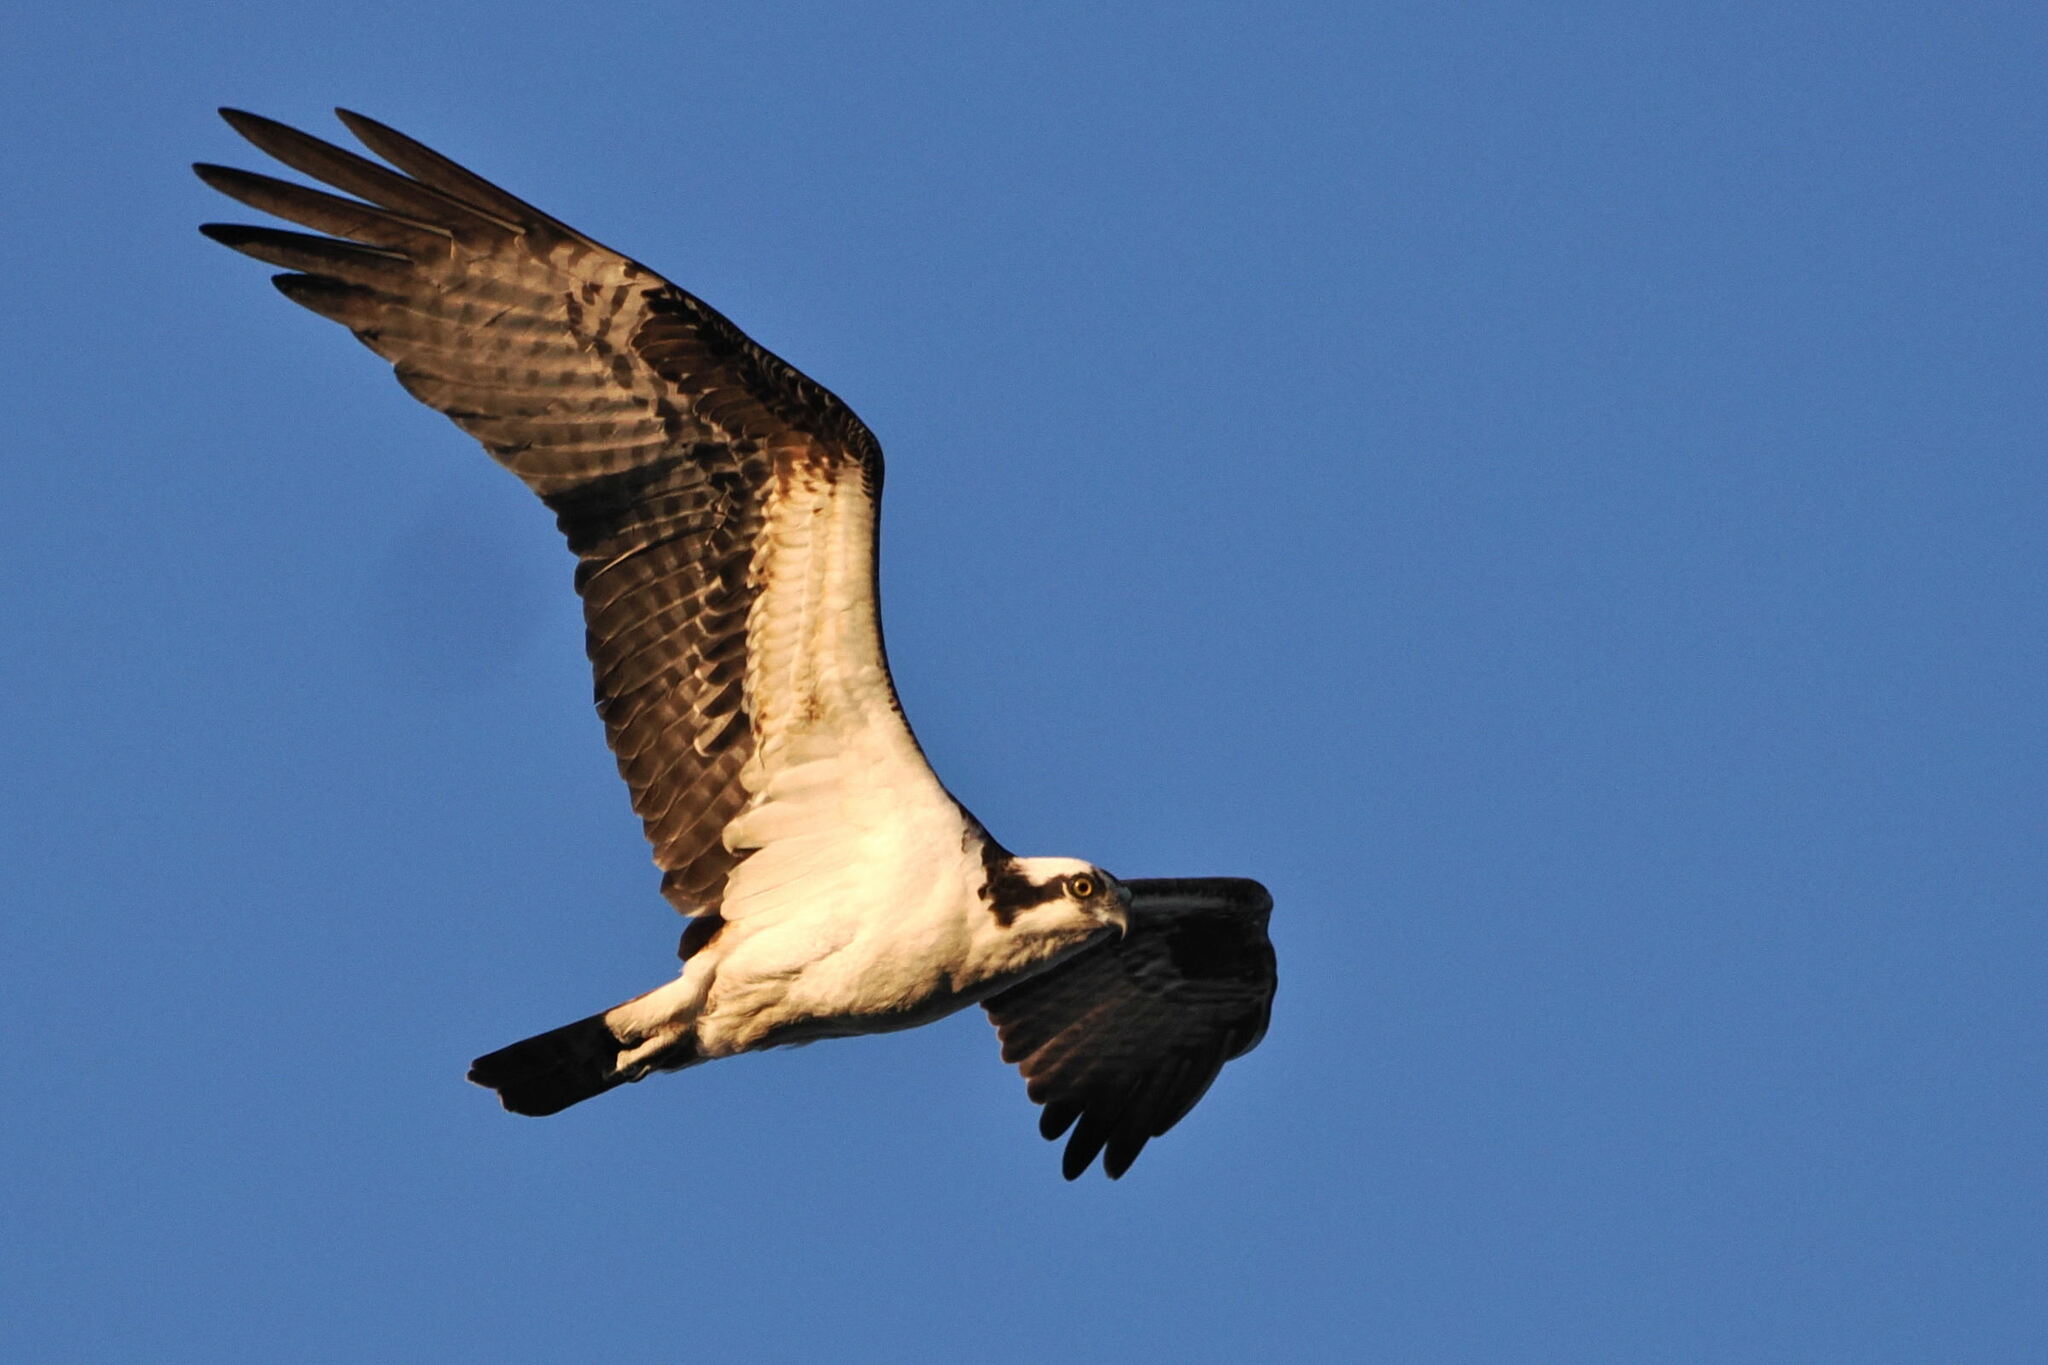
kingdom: Animalia
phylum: Chordata
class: Aves
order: Accipitriformes
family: Pandionidae
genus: Pandion
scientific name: Pandion haliaetus
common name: Osprey
